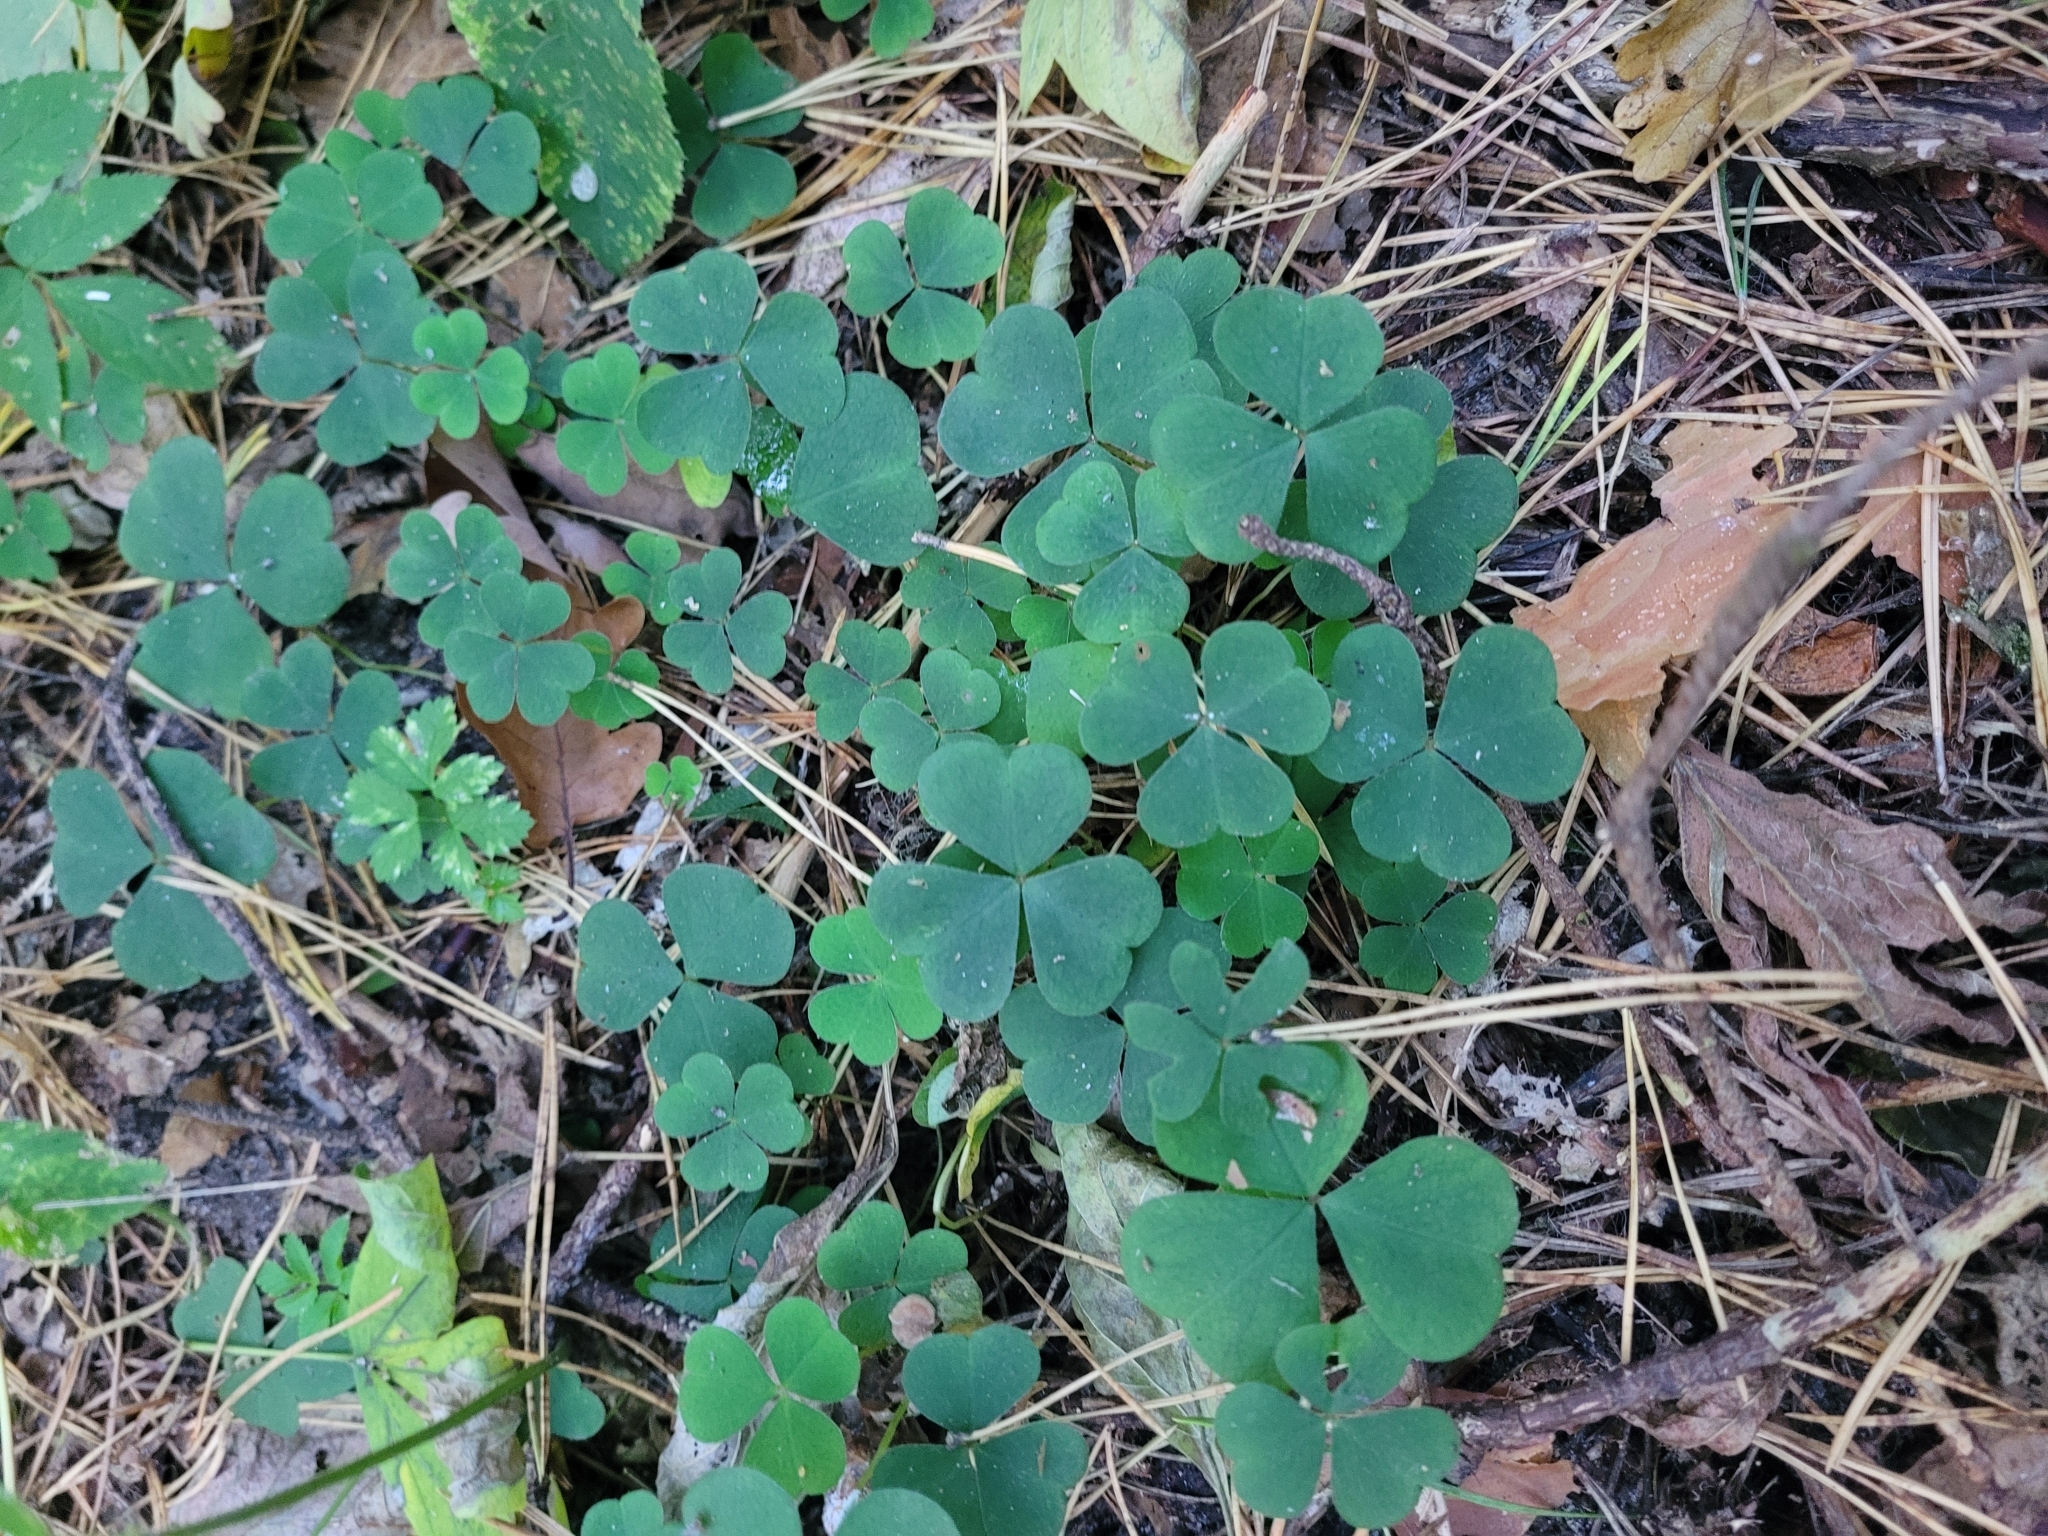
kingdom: Plantae
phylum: Tracheophyta
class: Magnoliopsida
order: Oxalidales
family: Oxalidaceae
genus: Oxalis
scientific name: Oxalis acetosella
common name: Wood-sorrel
